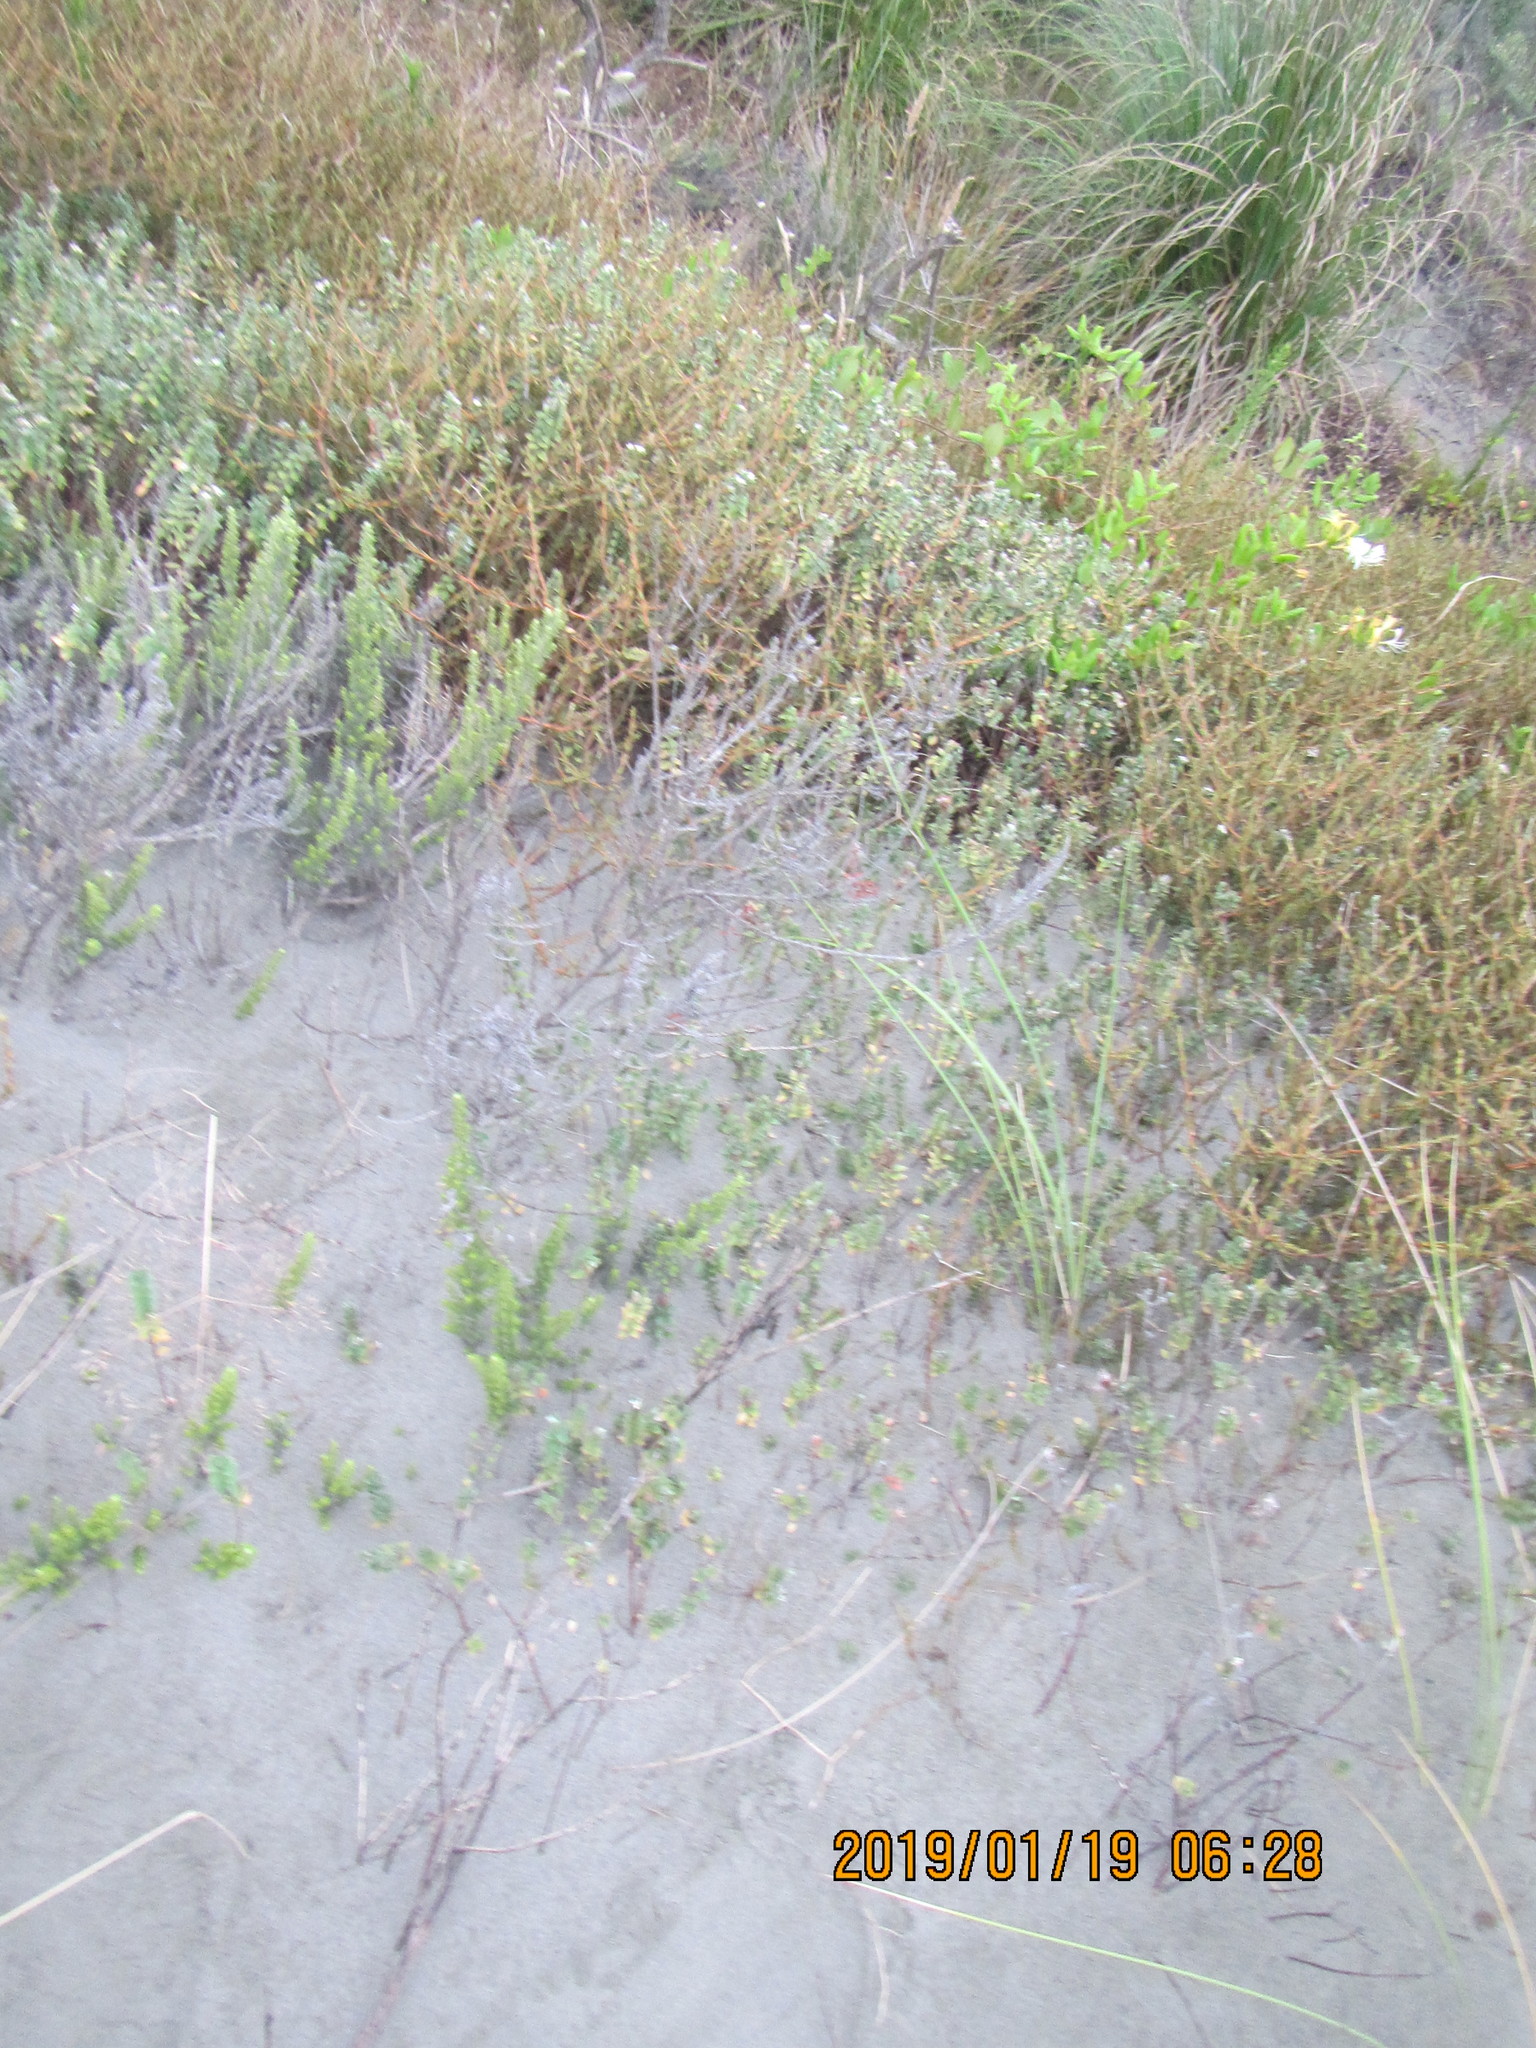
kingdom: Plantae
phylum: Tracheophyta
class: Magnoliopsida
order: Malvales
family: Thymelaeaceae
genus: Pimelea
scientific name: Pimelea villosa
